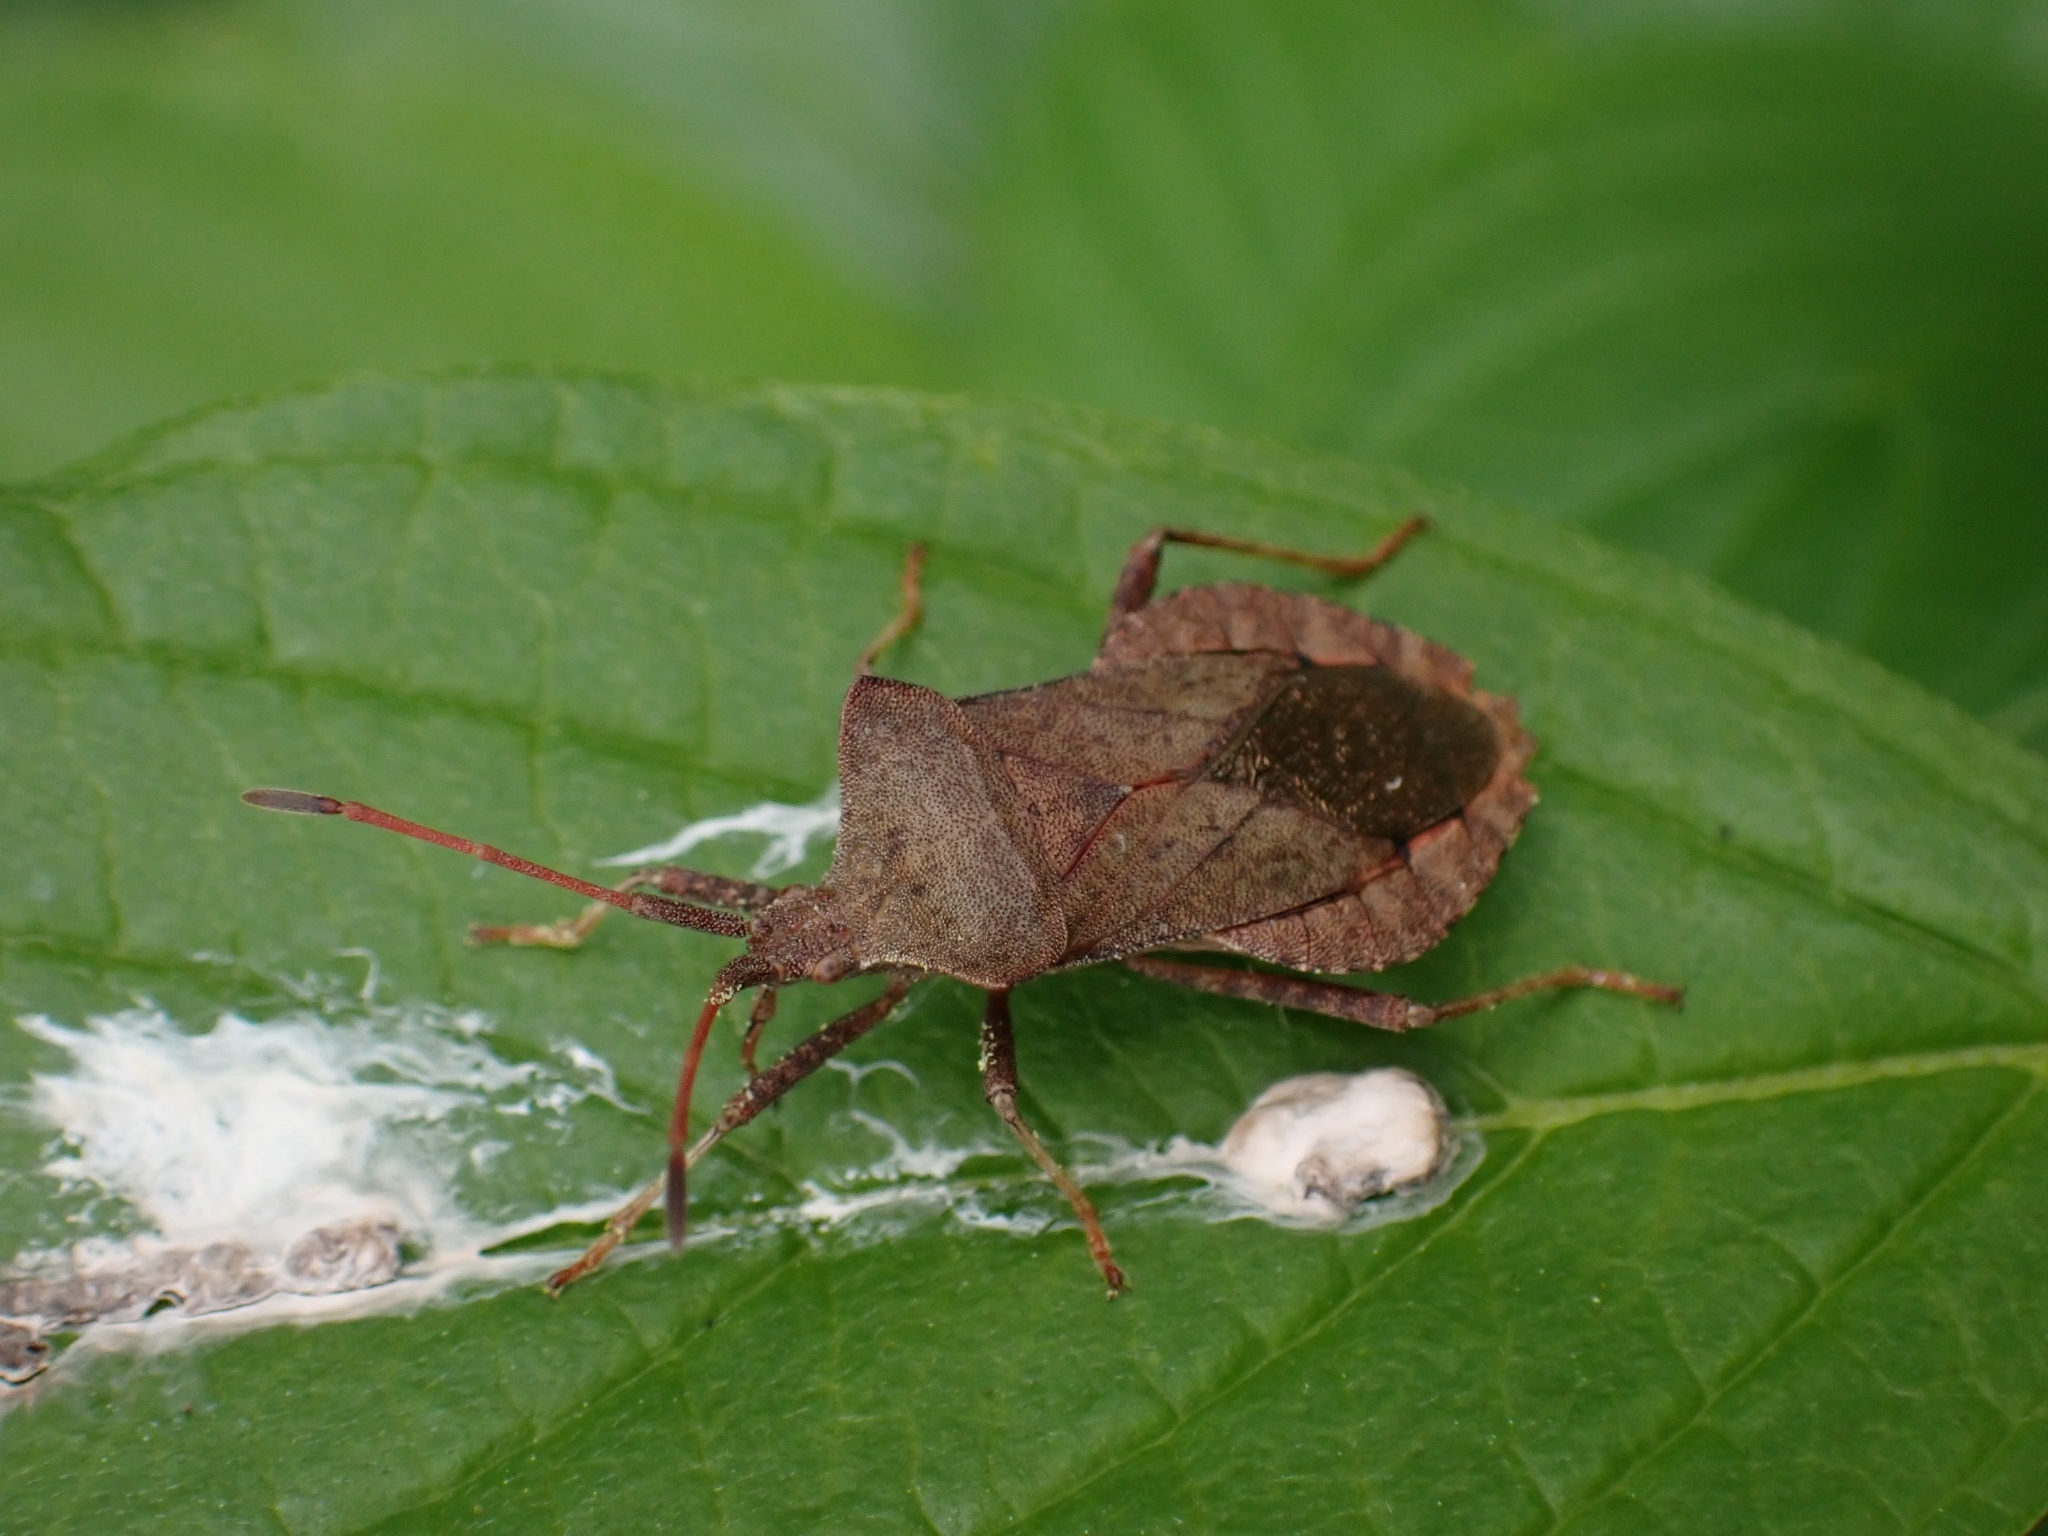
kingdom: Animalia
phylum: Arthropoda
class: Insecta
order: Hemiptera
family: Coreidae
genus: Coreus
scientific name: Coreus marginatus
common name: Dock bug
